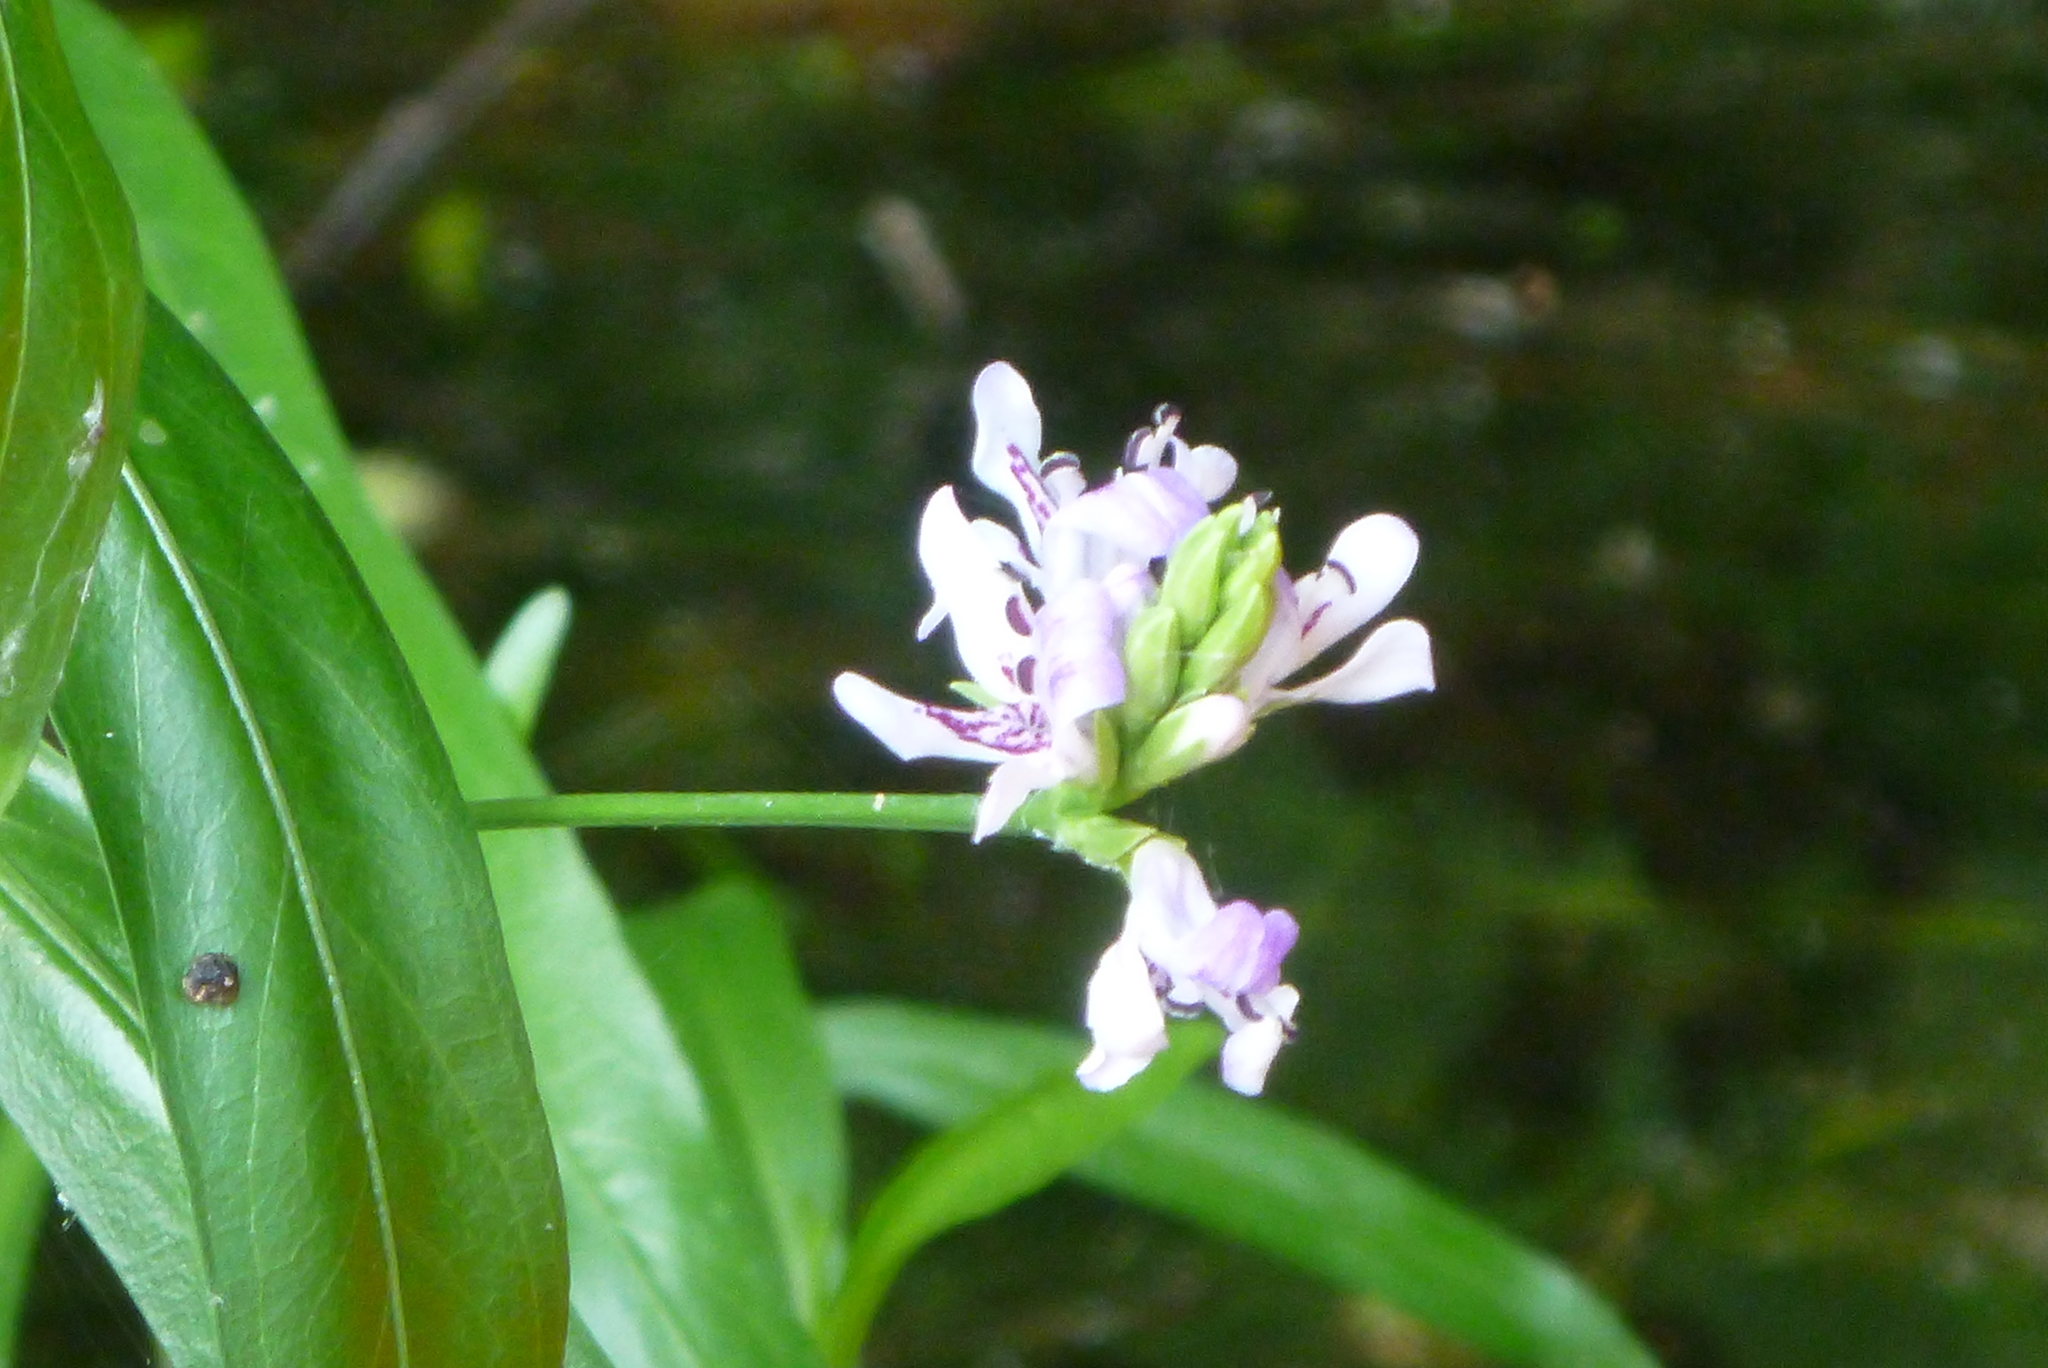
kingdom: Plantae
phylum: Tracheophyta
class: Magnoliopsida
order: Lamiales
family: Acanthaceae
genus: Dianthera
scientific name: Dianthera americana
